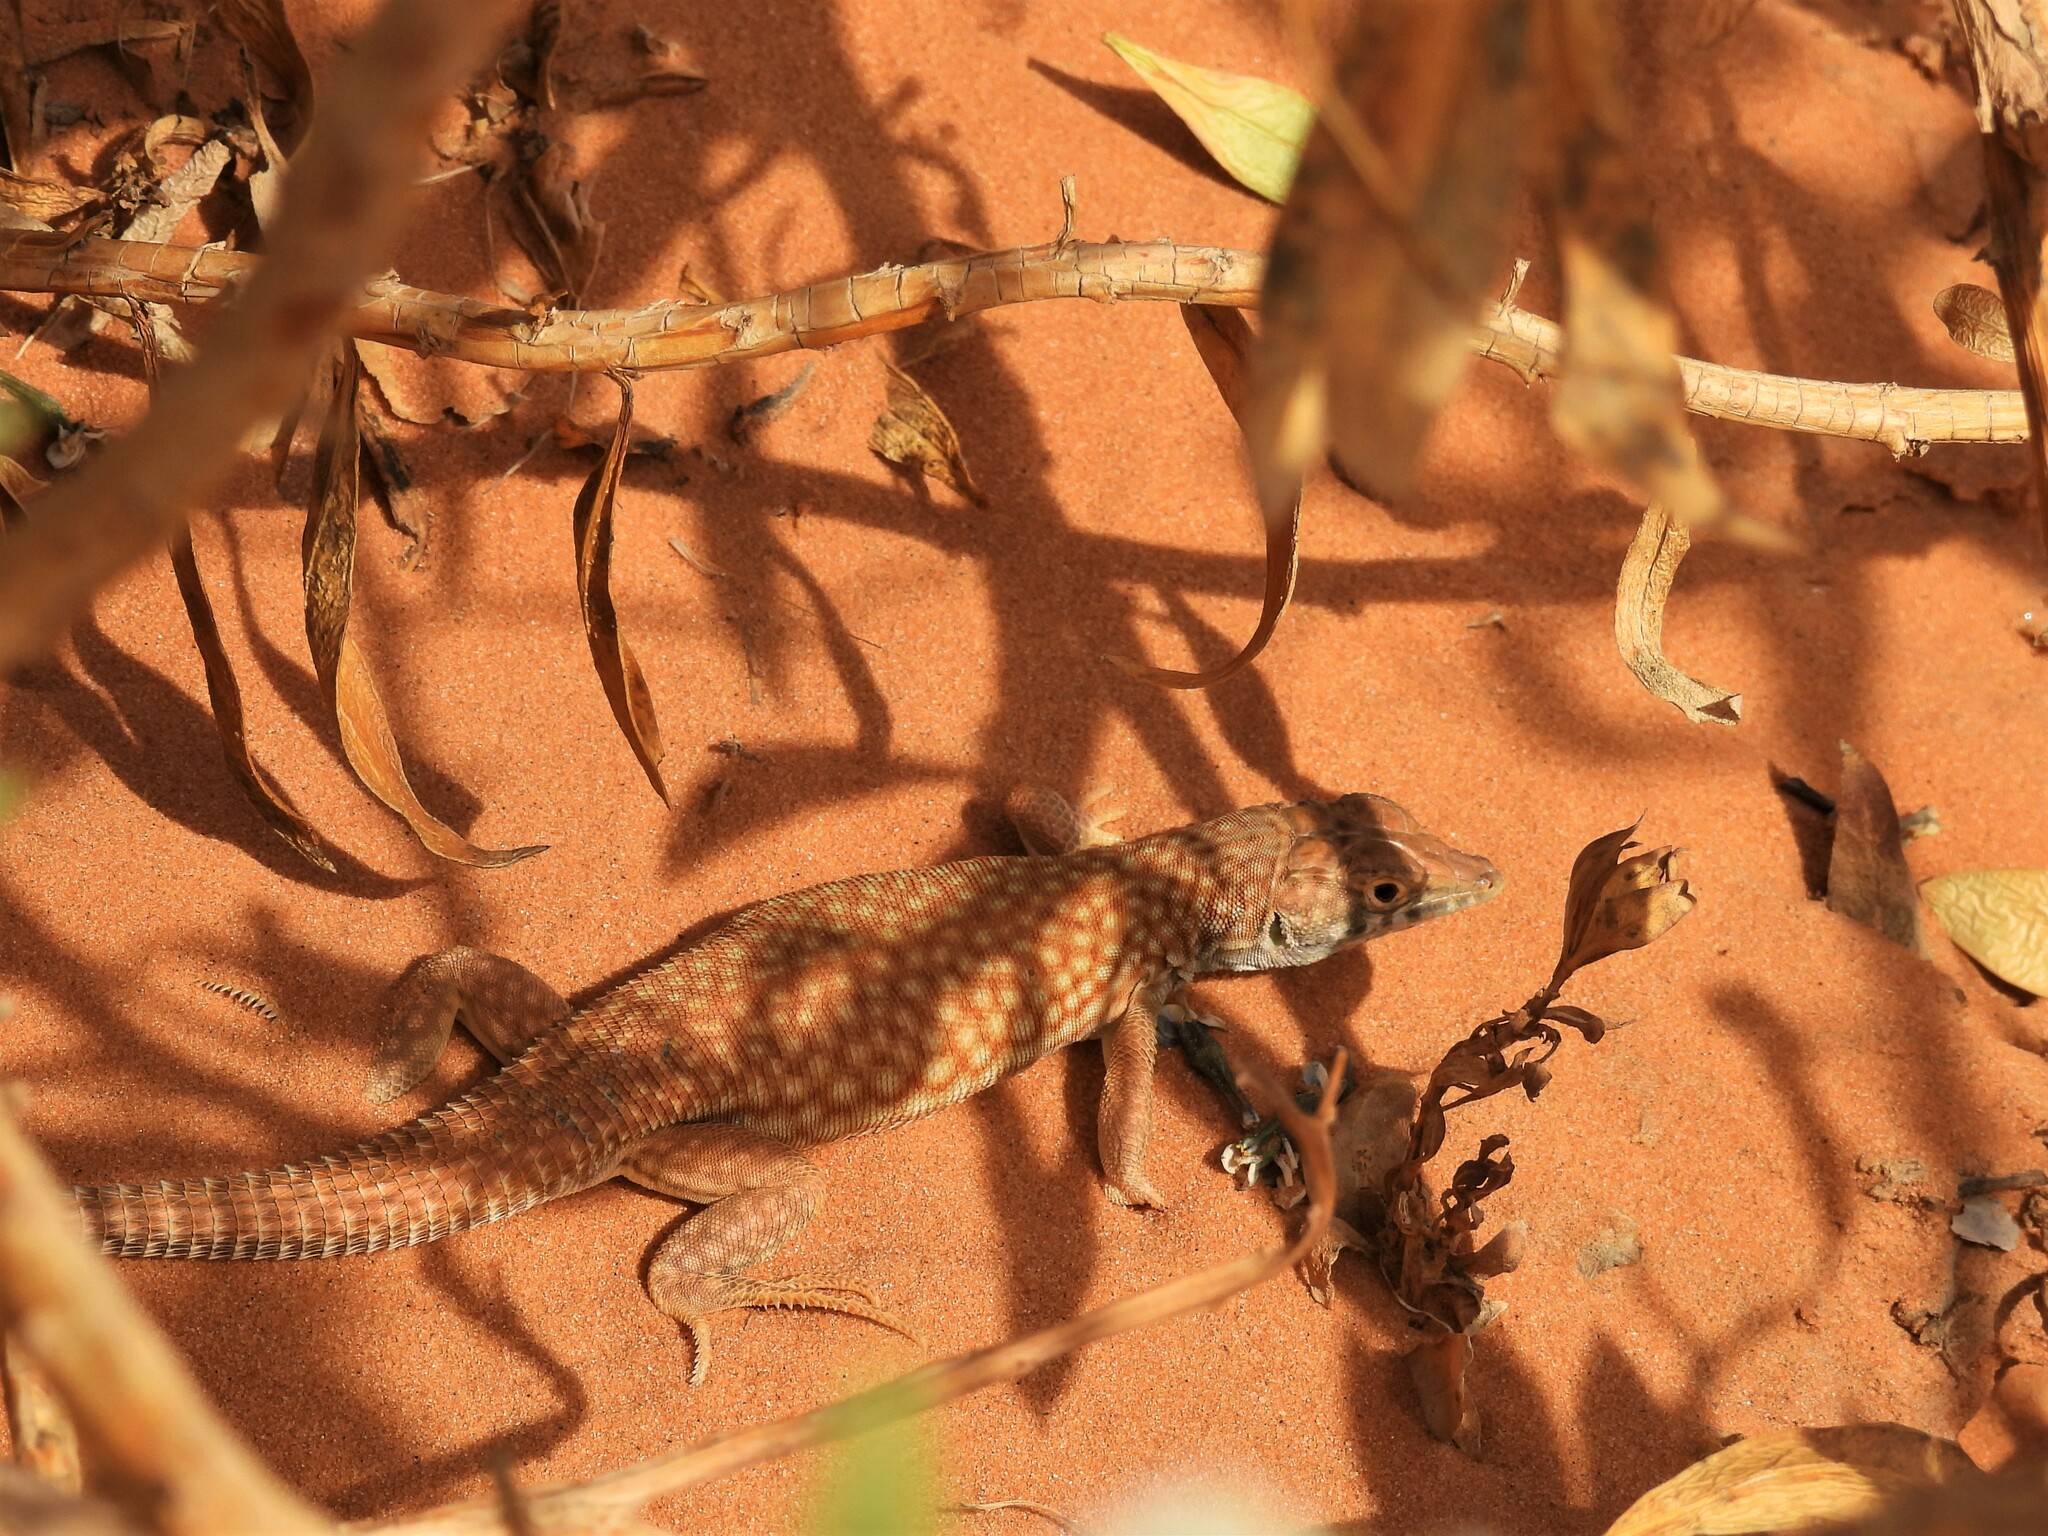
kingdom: Animalia
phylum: Chordata
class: Squamata
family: Lacertidae
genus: Acanthodactylus
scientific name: Acanthodactylus schmidti
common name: Schmidt's fringe-toed lizard
